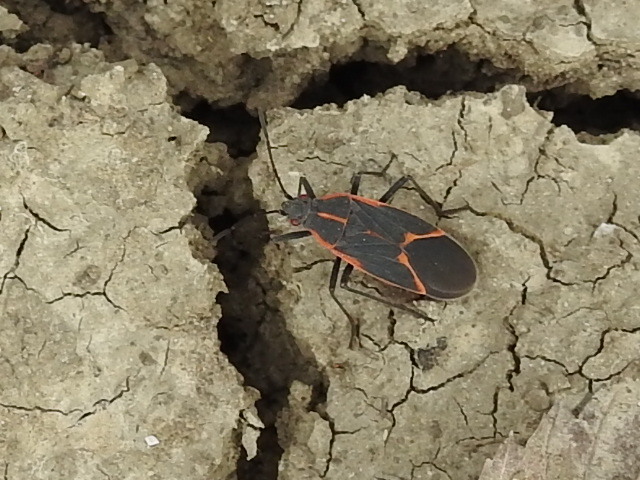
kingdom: Animalia
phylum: Arthropoda
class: Insecta
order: Hemiptera
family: Rhopalidae
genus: Boisea
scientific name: Boisea trivittata
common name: Boxelder bug
